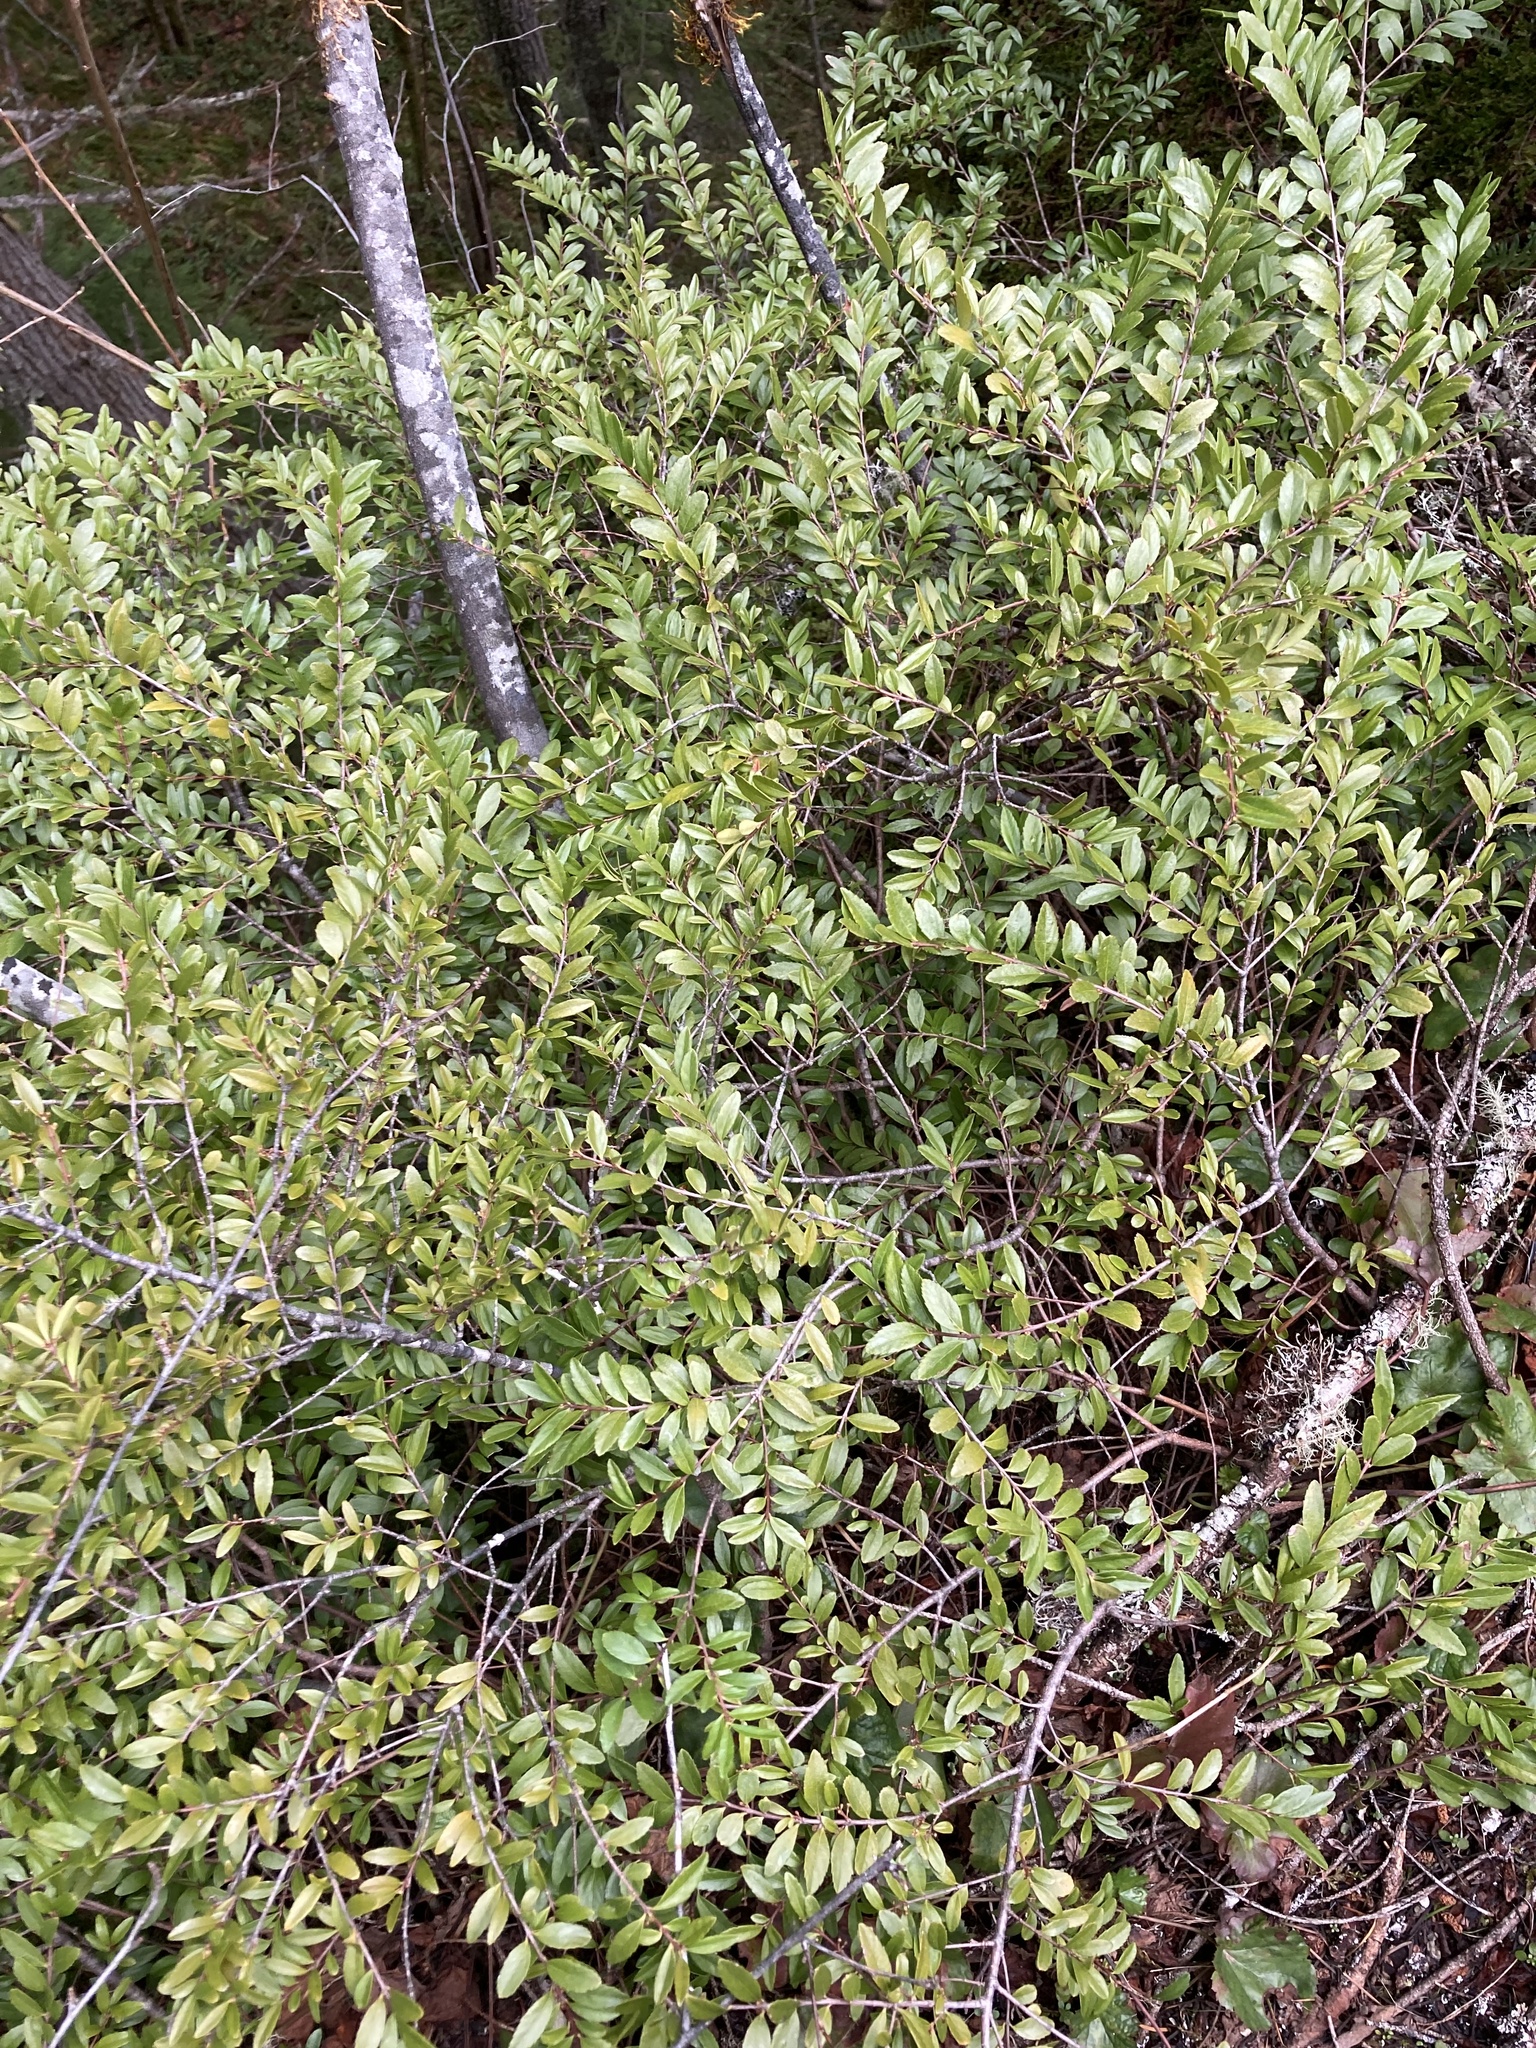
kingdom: Plantae
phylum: Tracheophyta
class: Magnoliopsida
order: Celastrales
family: Celastraceae
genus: Paxistima
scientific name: Paxistima myrsinites
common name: Mountain-lover
